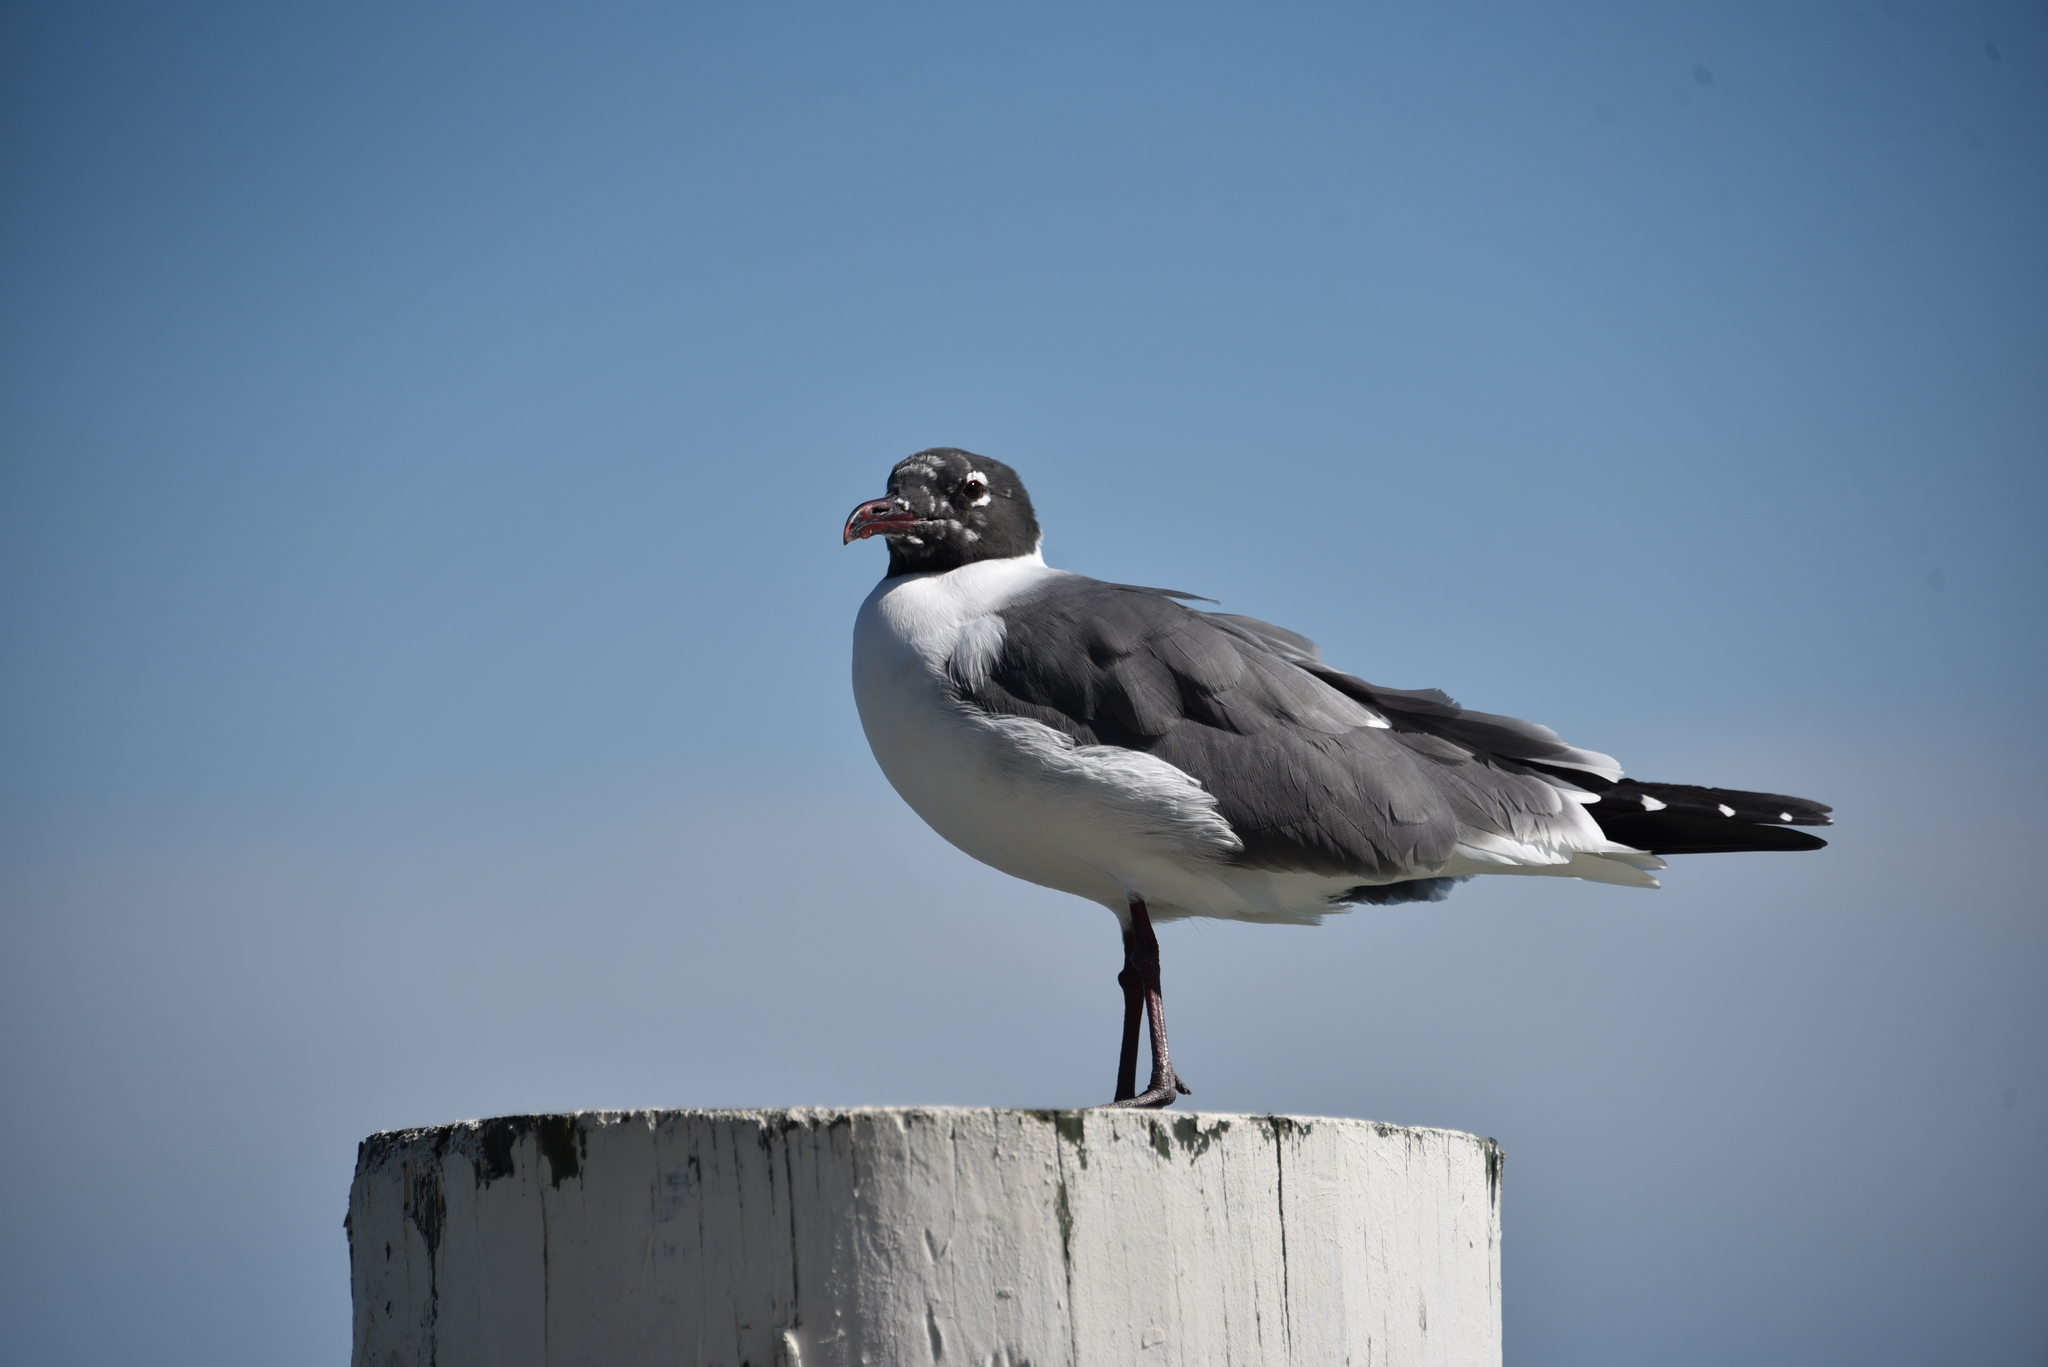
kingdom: Animalia
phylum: Chordata
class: Aves
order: Charadriiformes
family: Laridae
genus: Leucophaeus
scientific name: Leucophaeus atricilla
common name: Laughing gull
